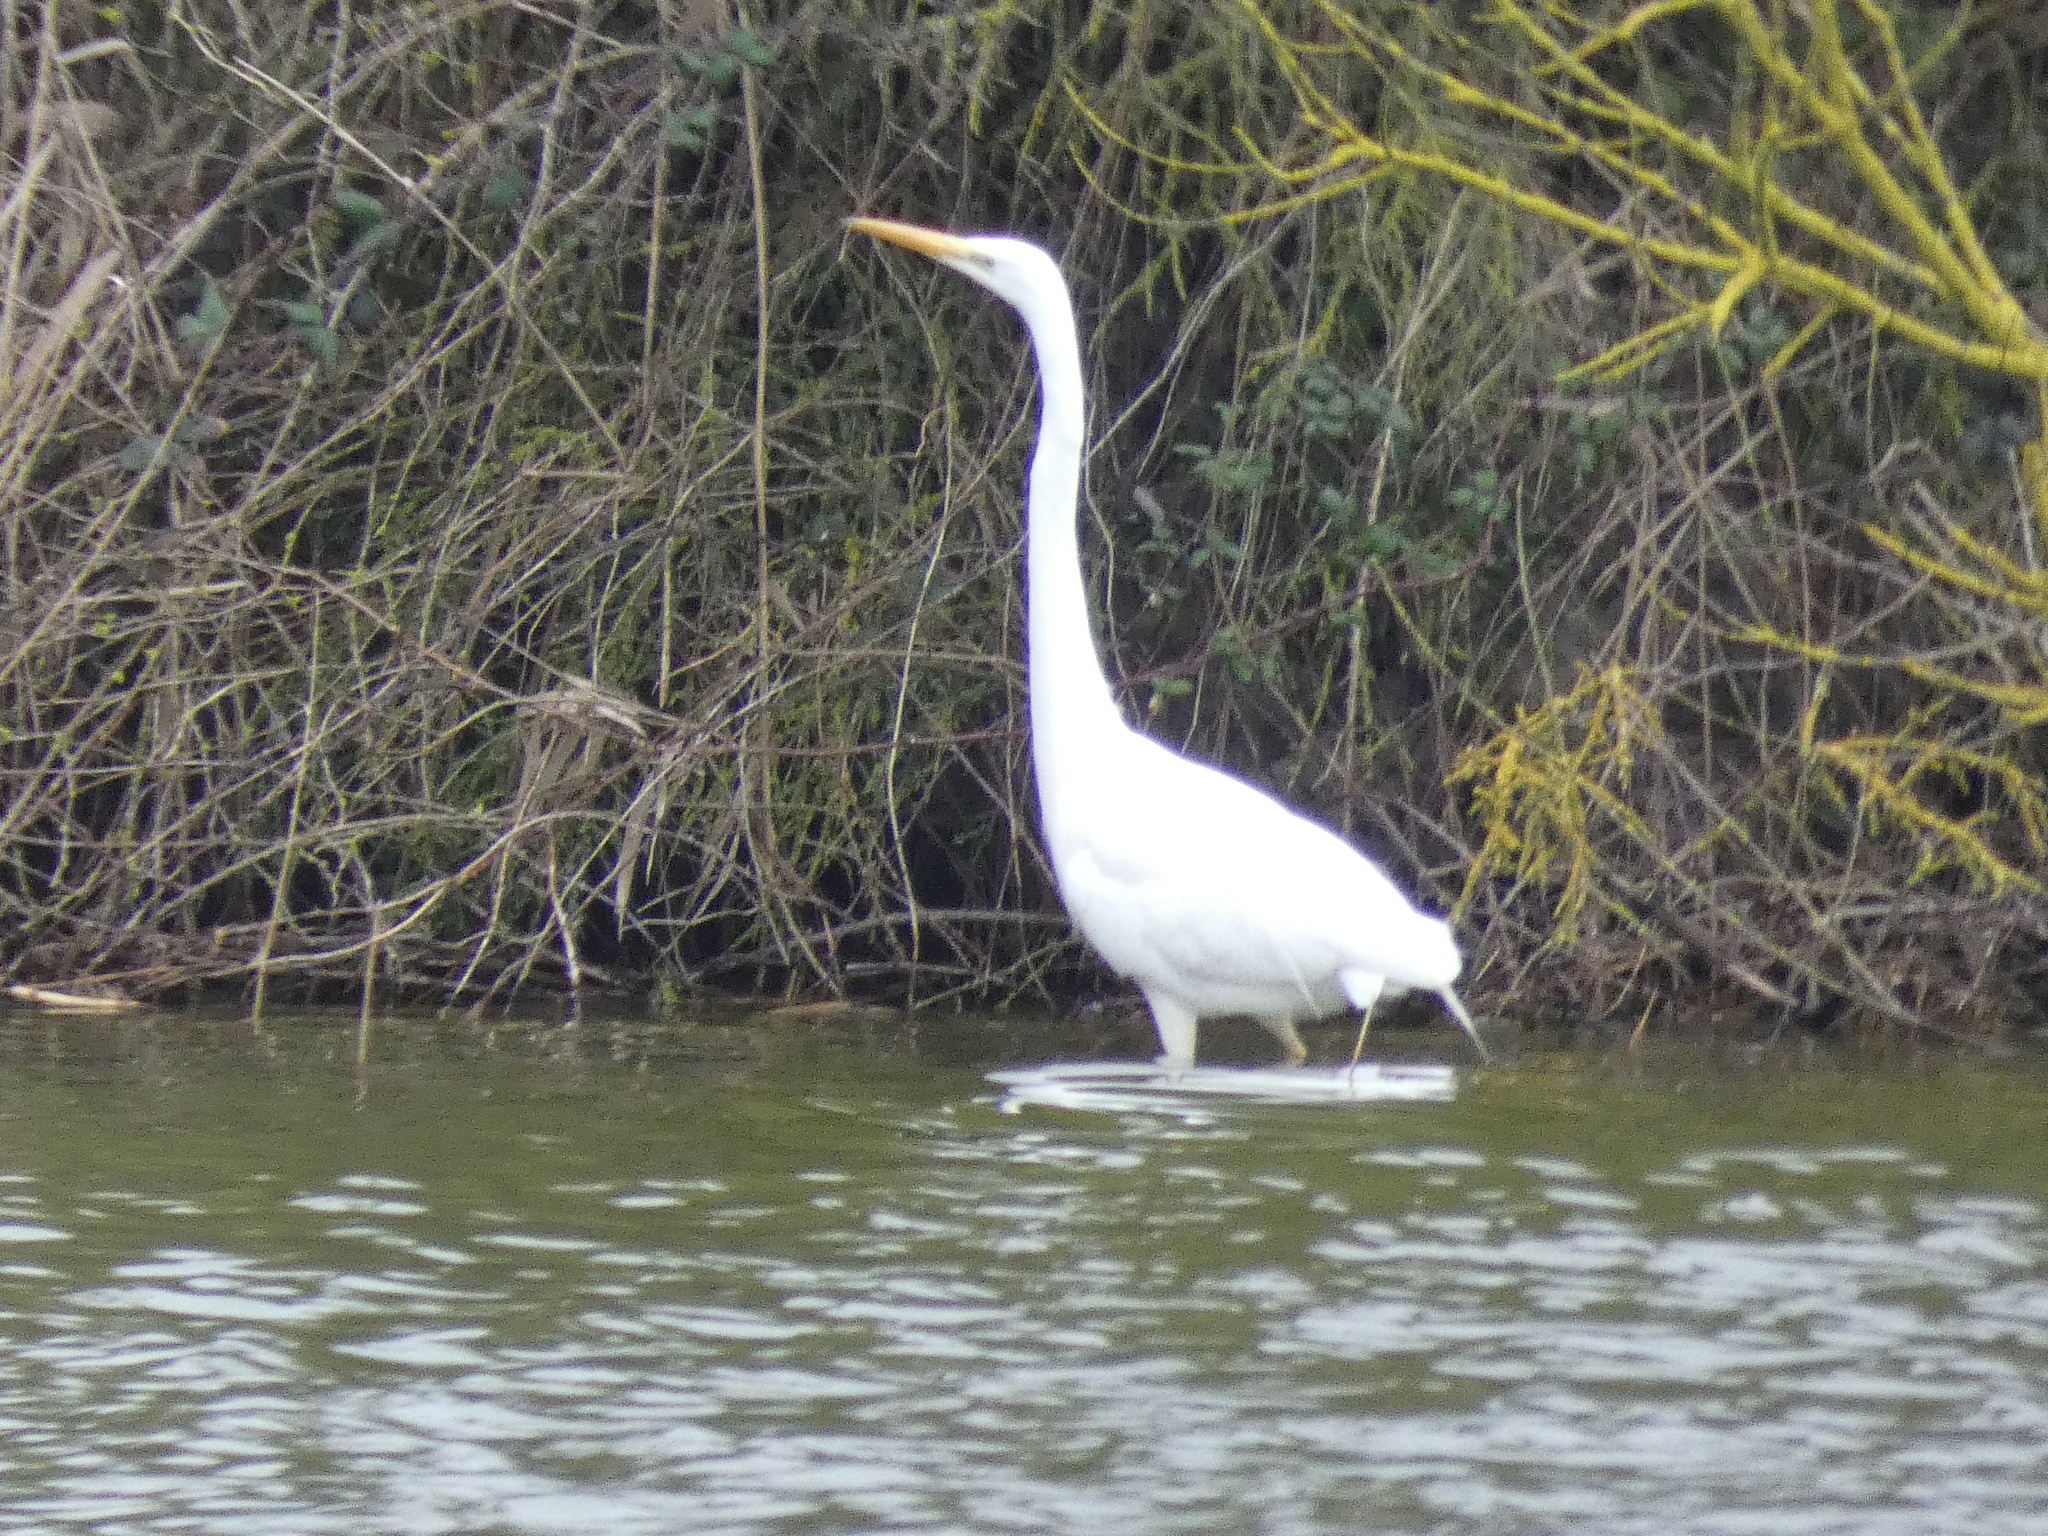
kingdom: Animalia
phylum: Chordata
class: Aves
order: Pelecaniformes
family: Ardeidae
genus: Ardea
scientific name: Ardea alba
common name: Great egret
